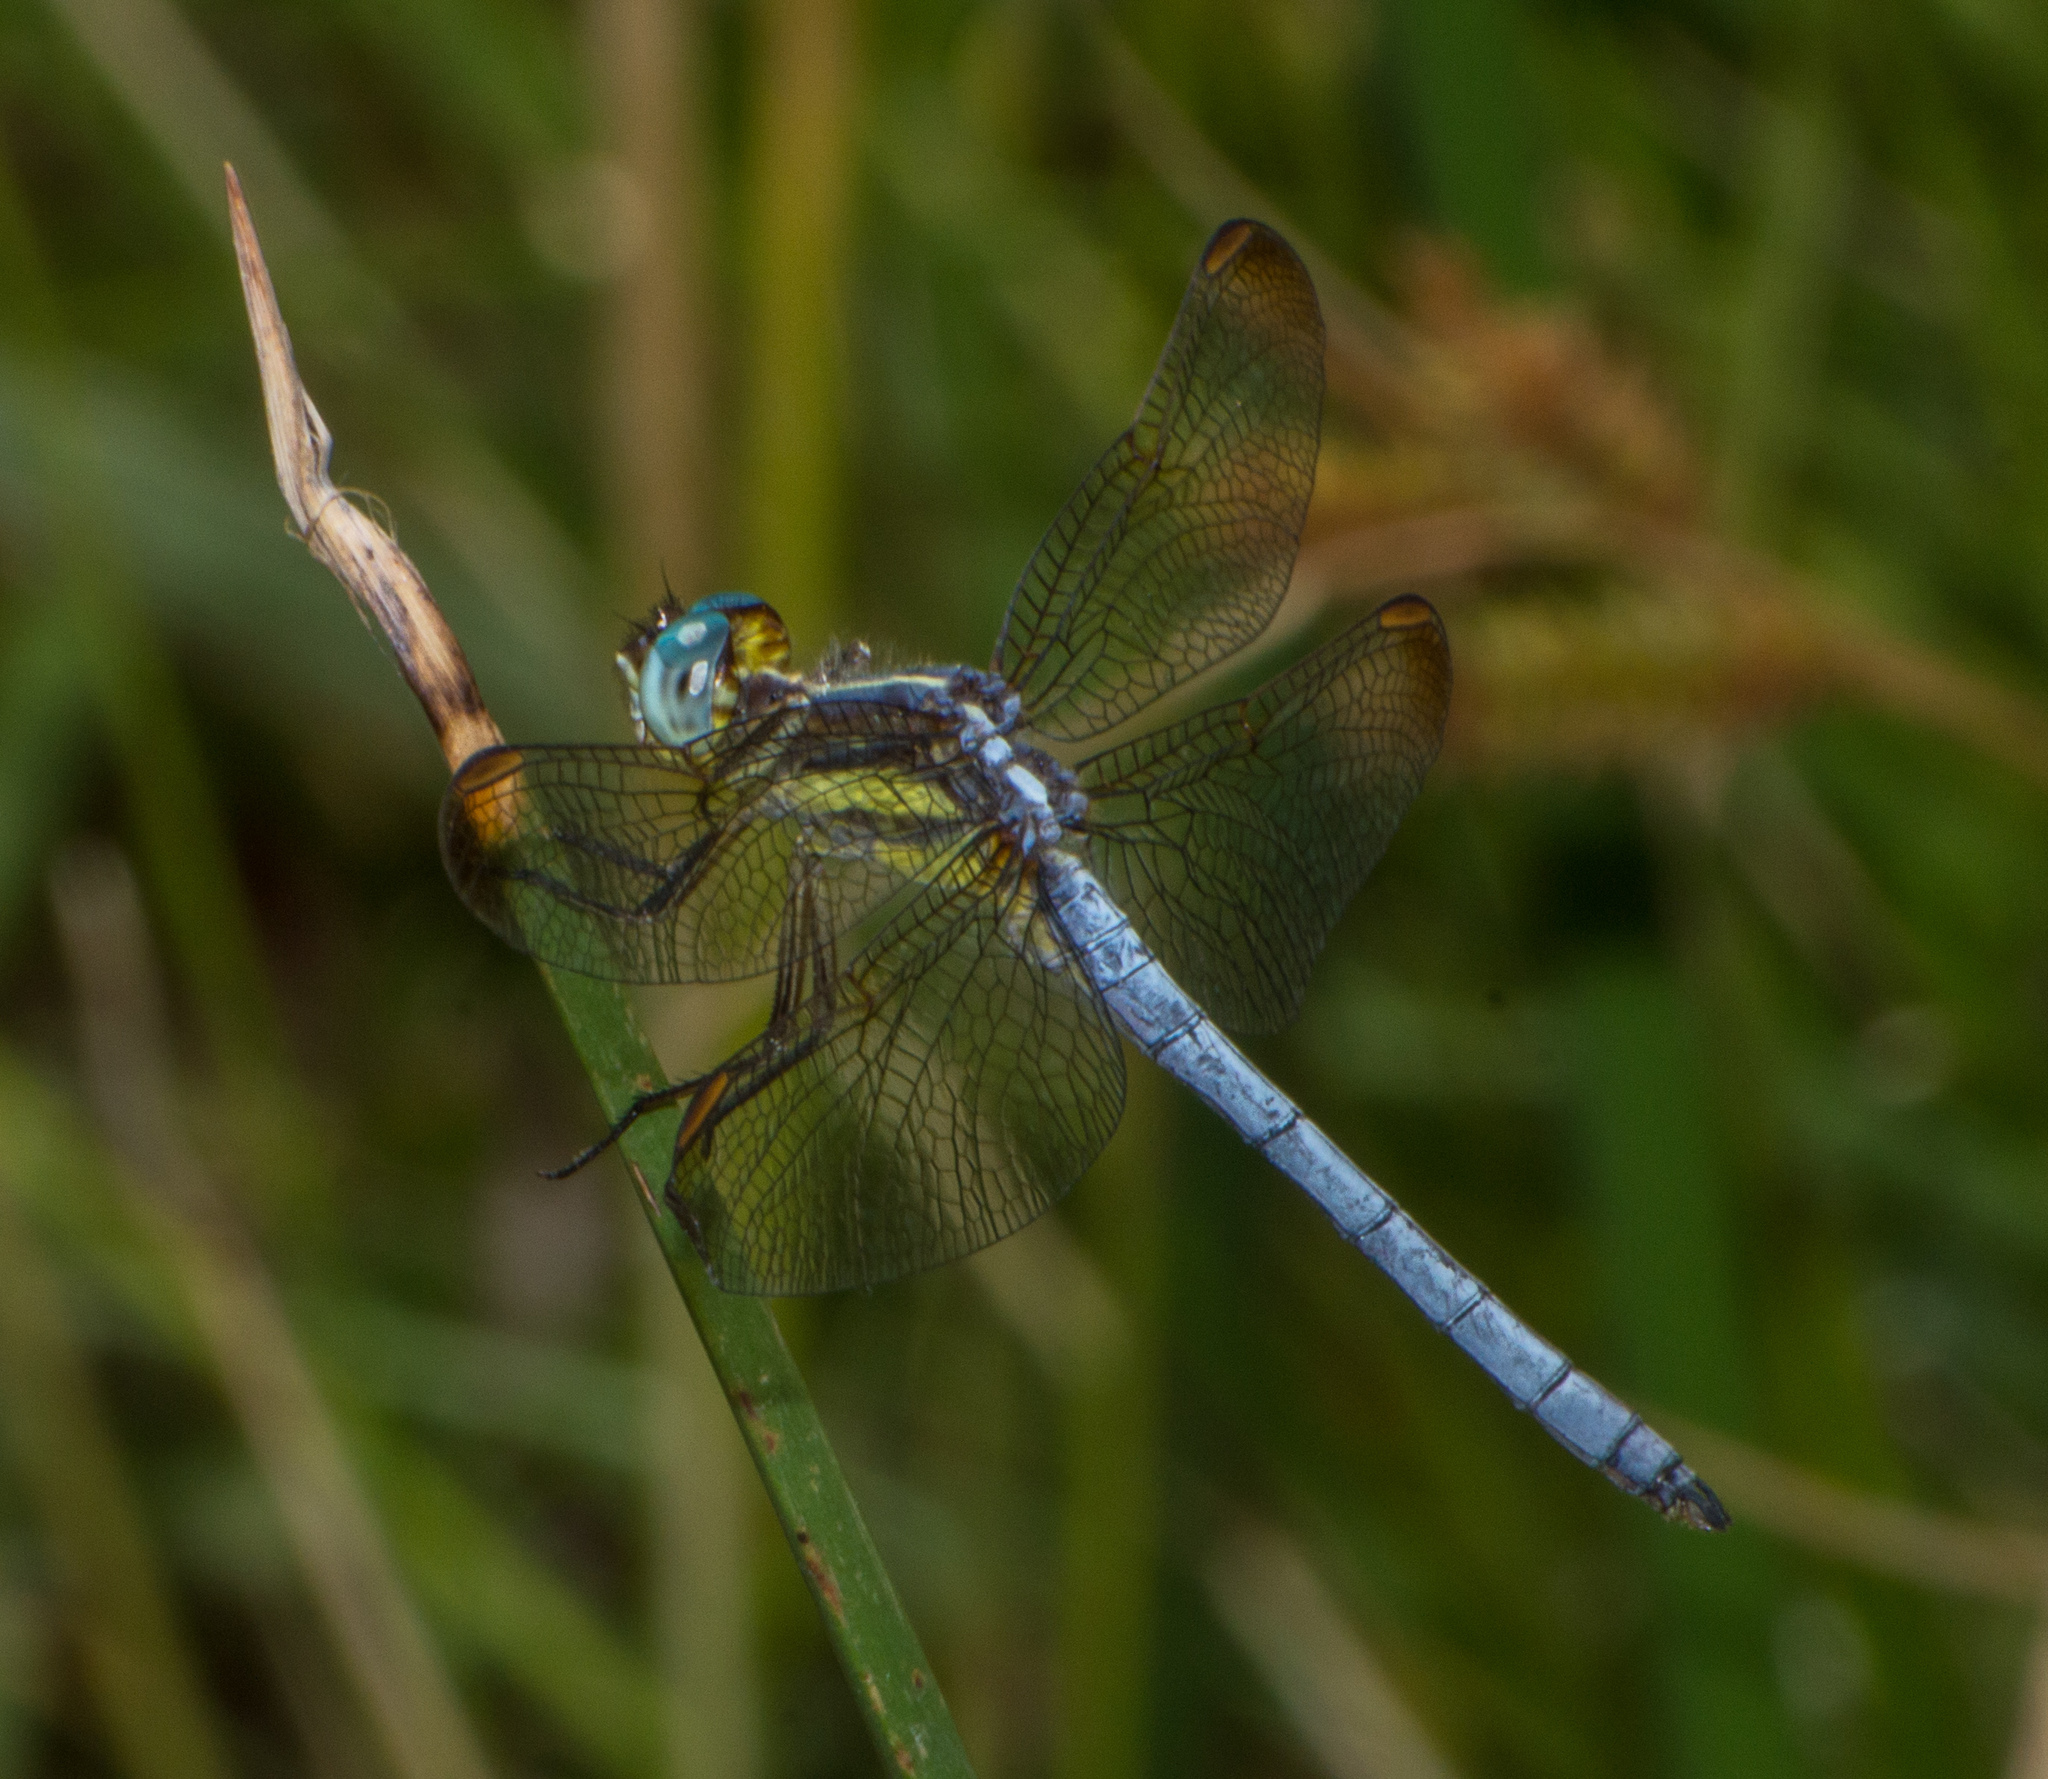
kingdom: Animalia
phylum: Arthropoda
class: Insecta
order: Odonata
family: Libellulidae
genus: Dasythemis
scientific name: Dasythemis mincki
